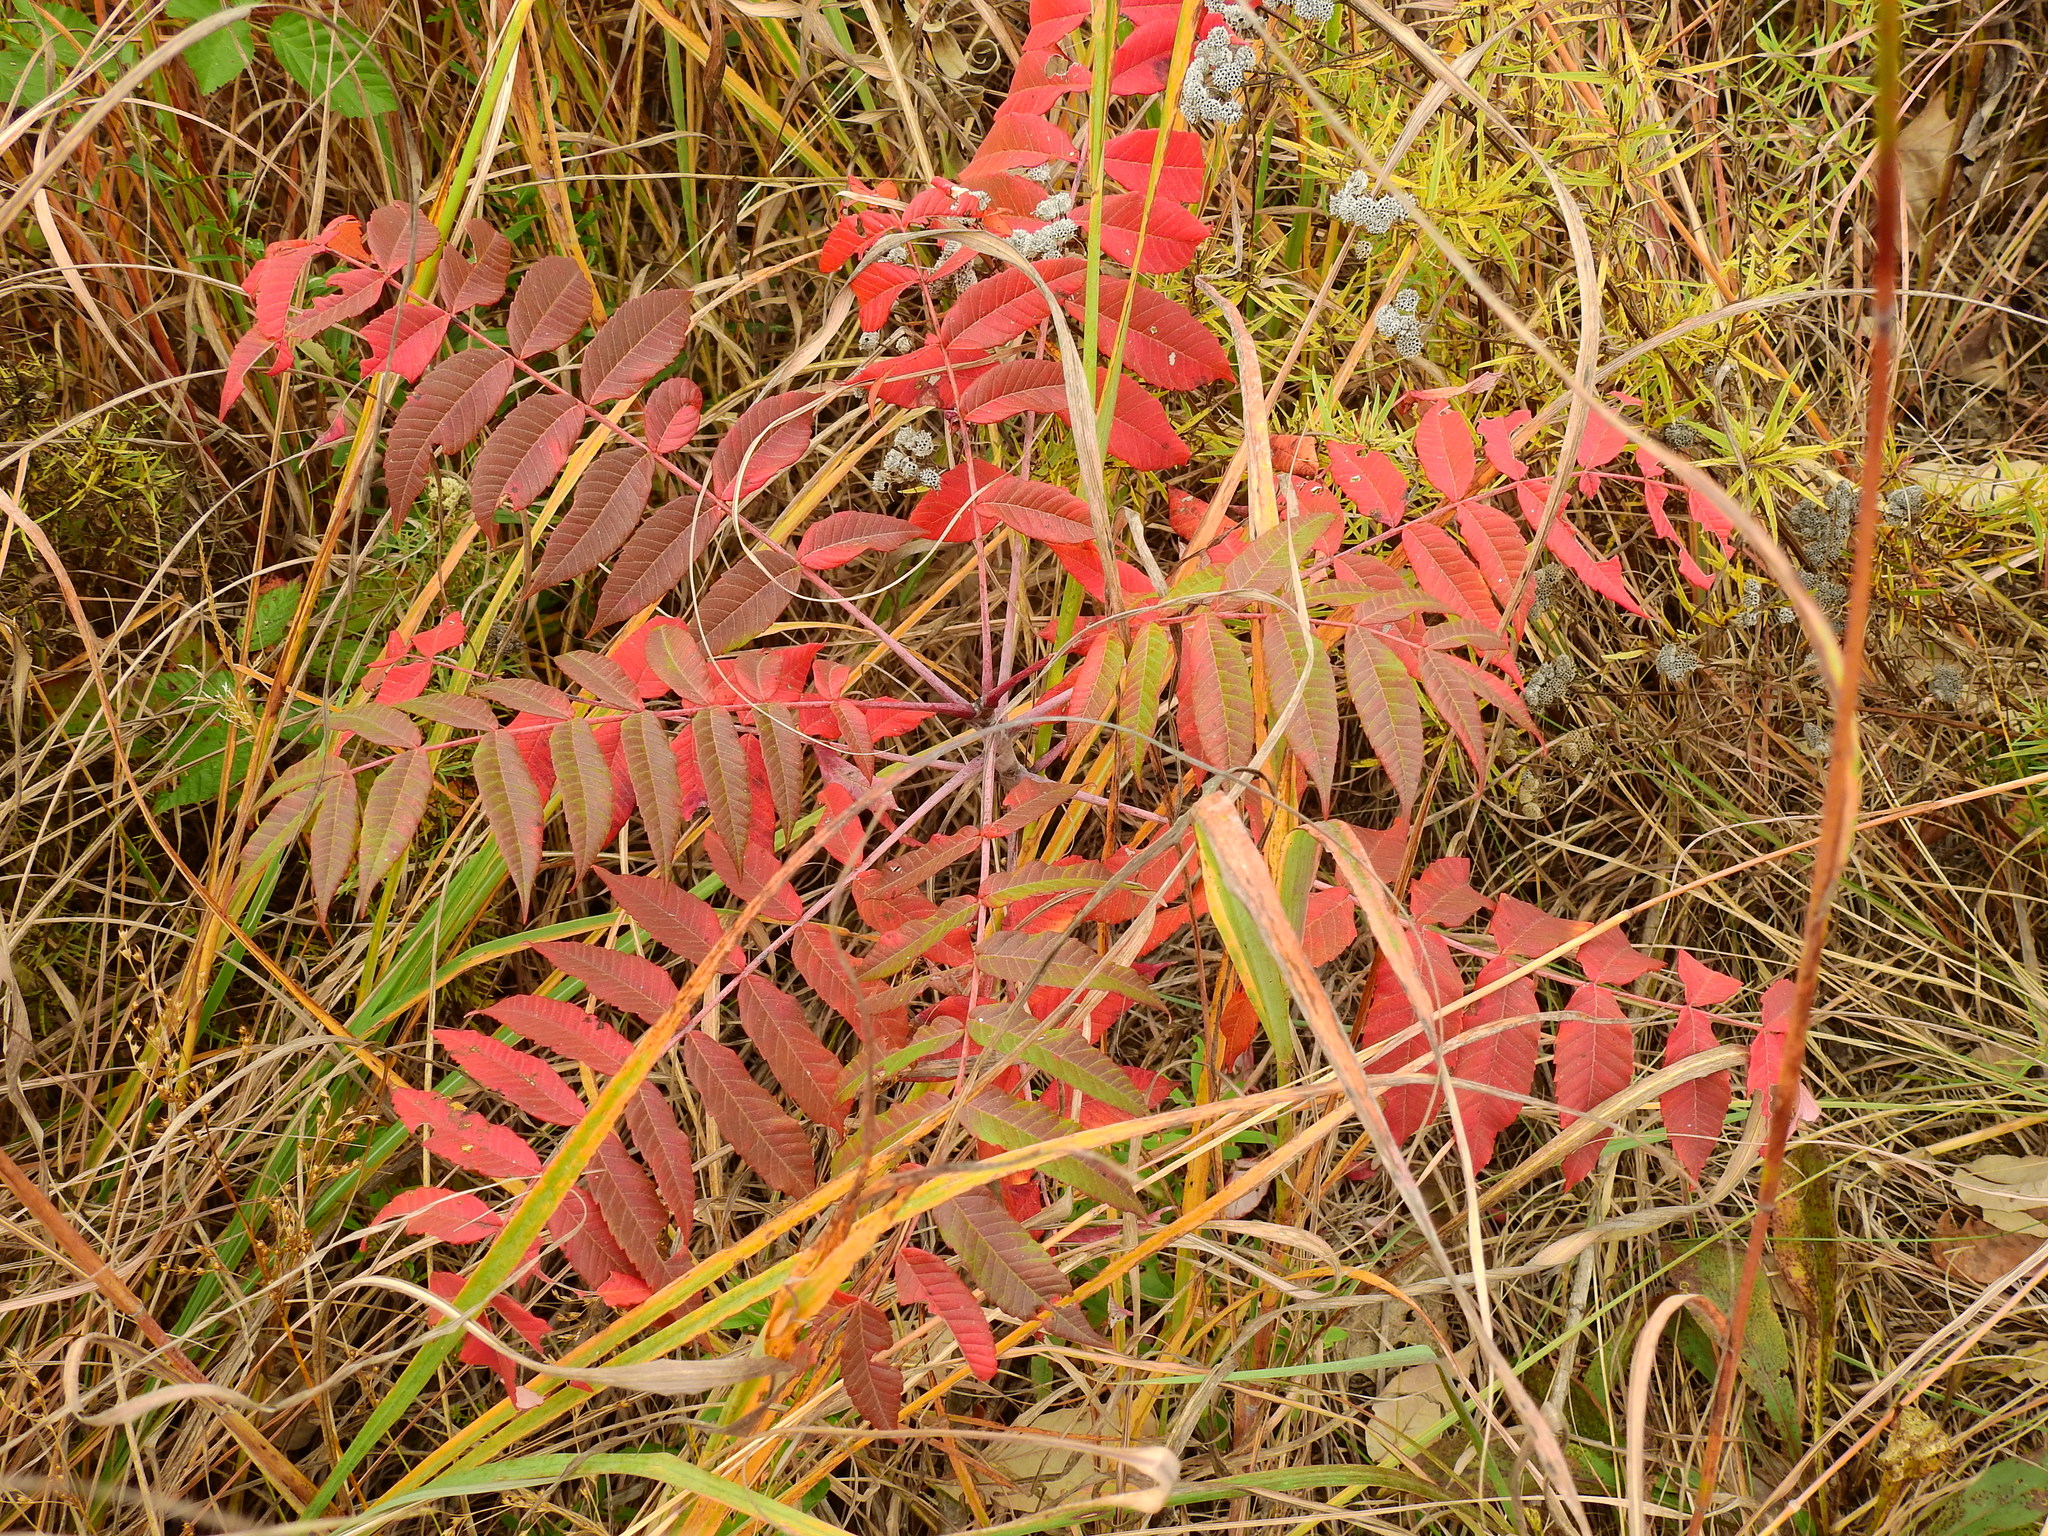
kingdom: Plantae
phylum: Tracheophyta
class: Magnoliopsida
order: Sapindales
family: Anacardiaceae
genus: Rhus
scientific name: Rhus glabra
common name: Scarlet sumac
